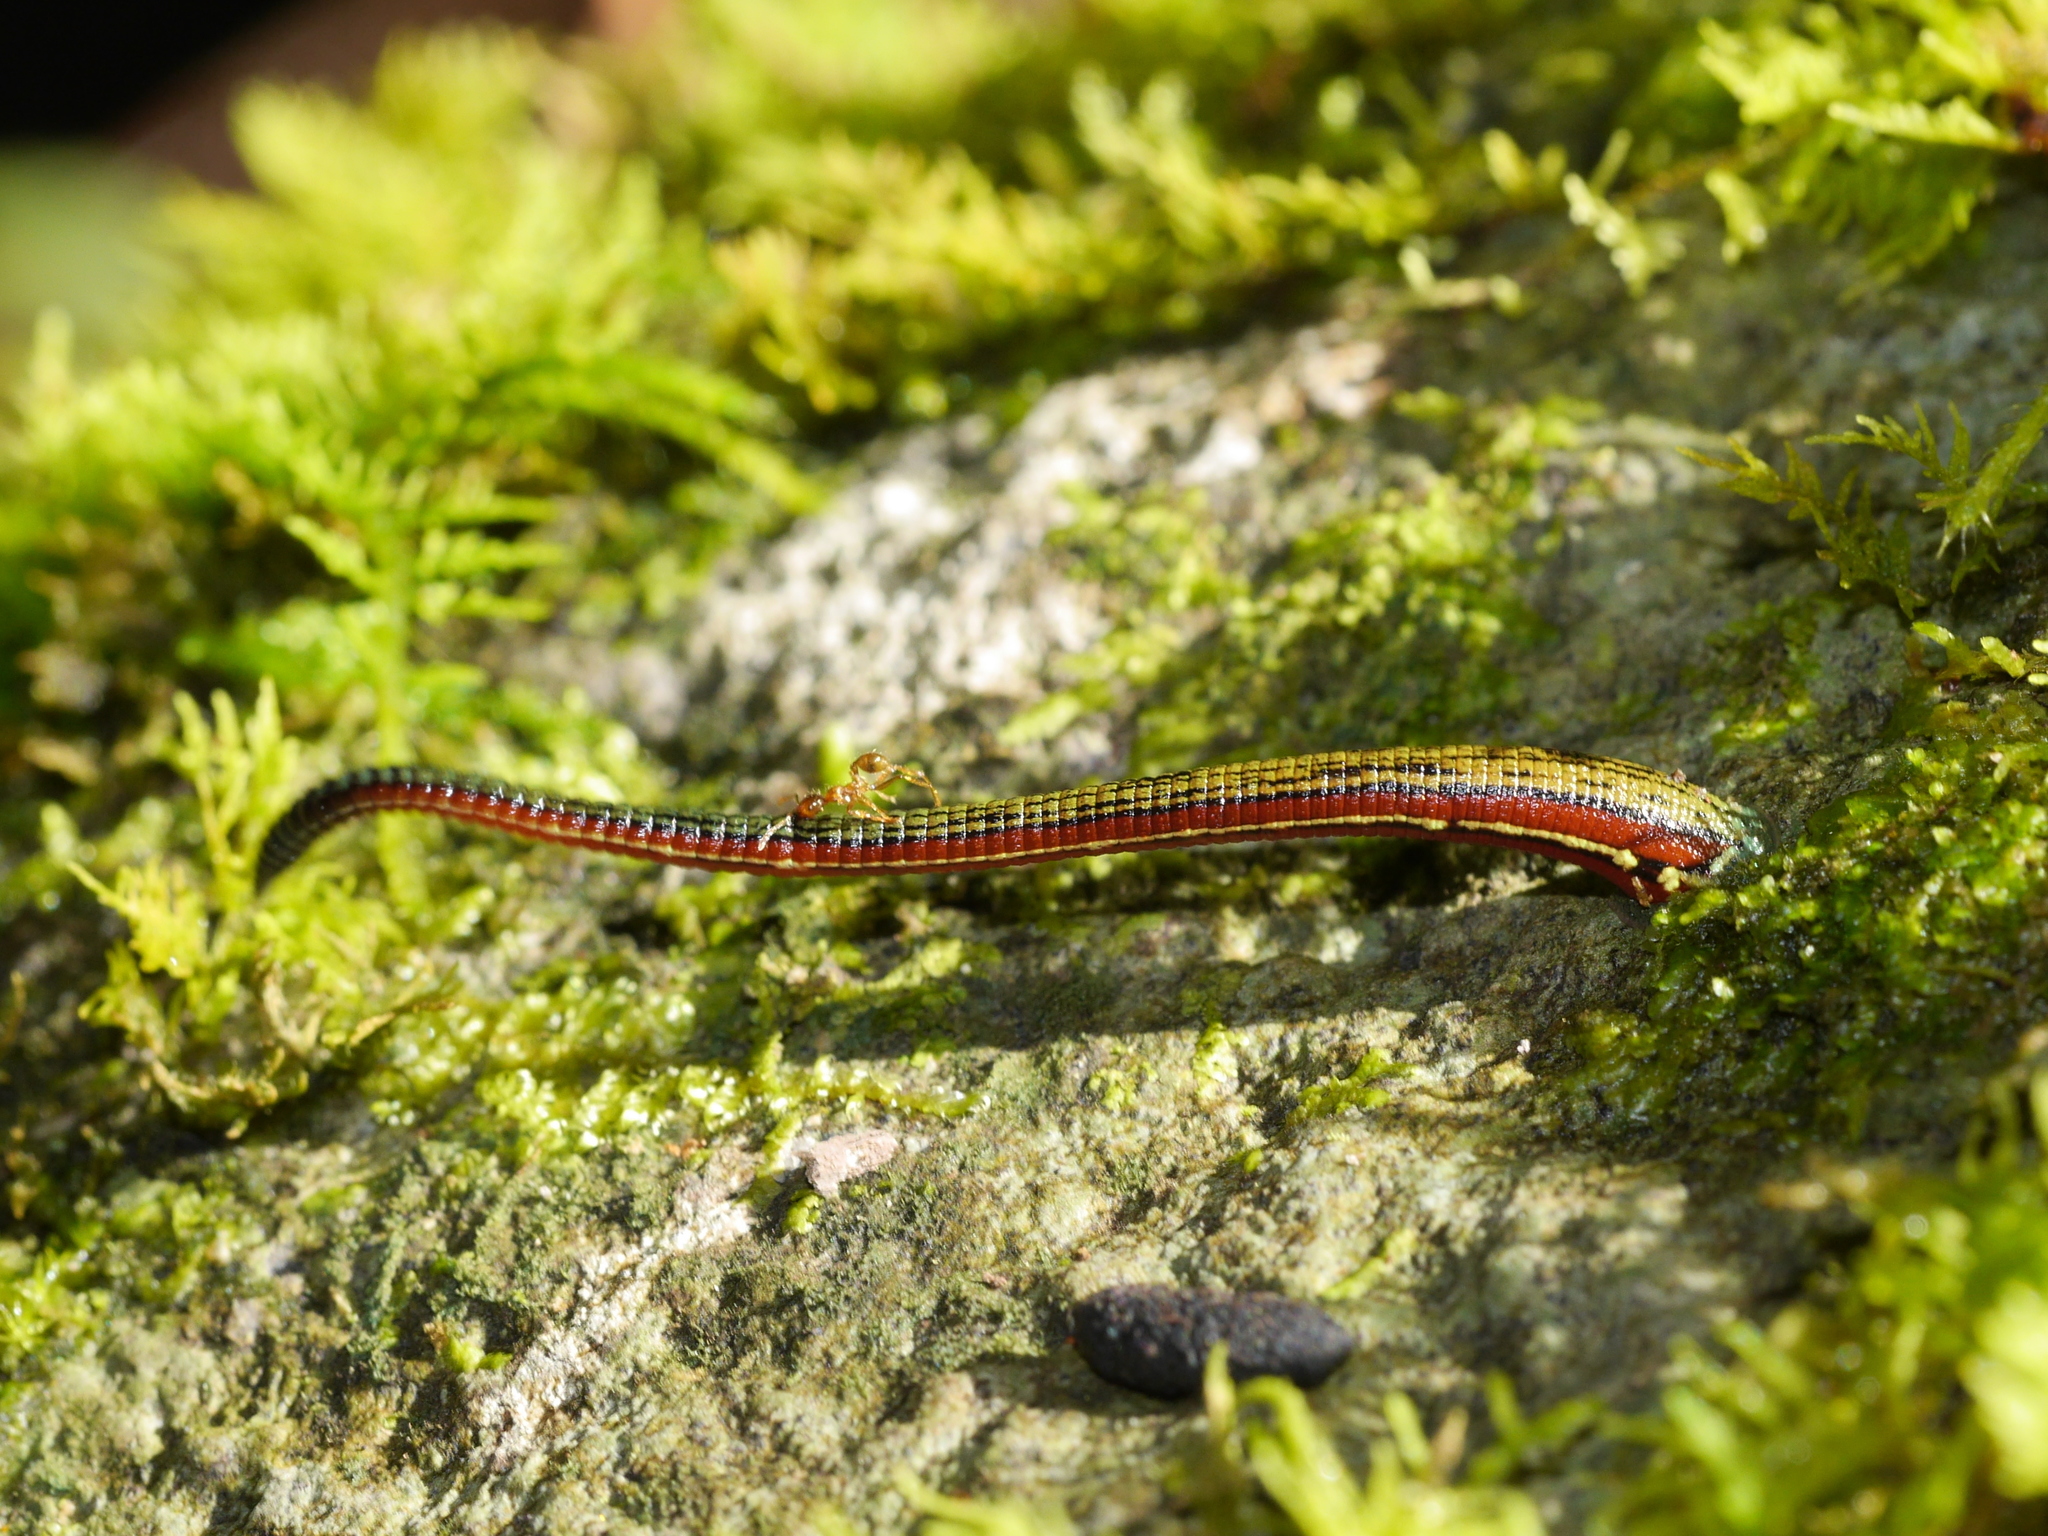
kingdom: Animalia
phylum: Annelida
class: Clitellata
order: Arhynchobdellida
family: Haemadipsidae
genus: Haemadipsa
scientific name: Haemadipsa picta
